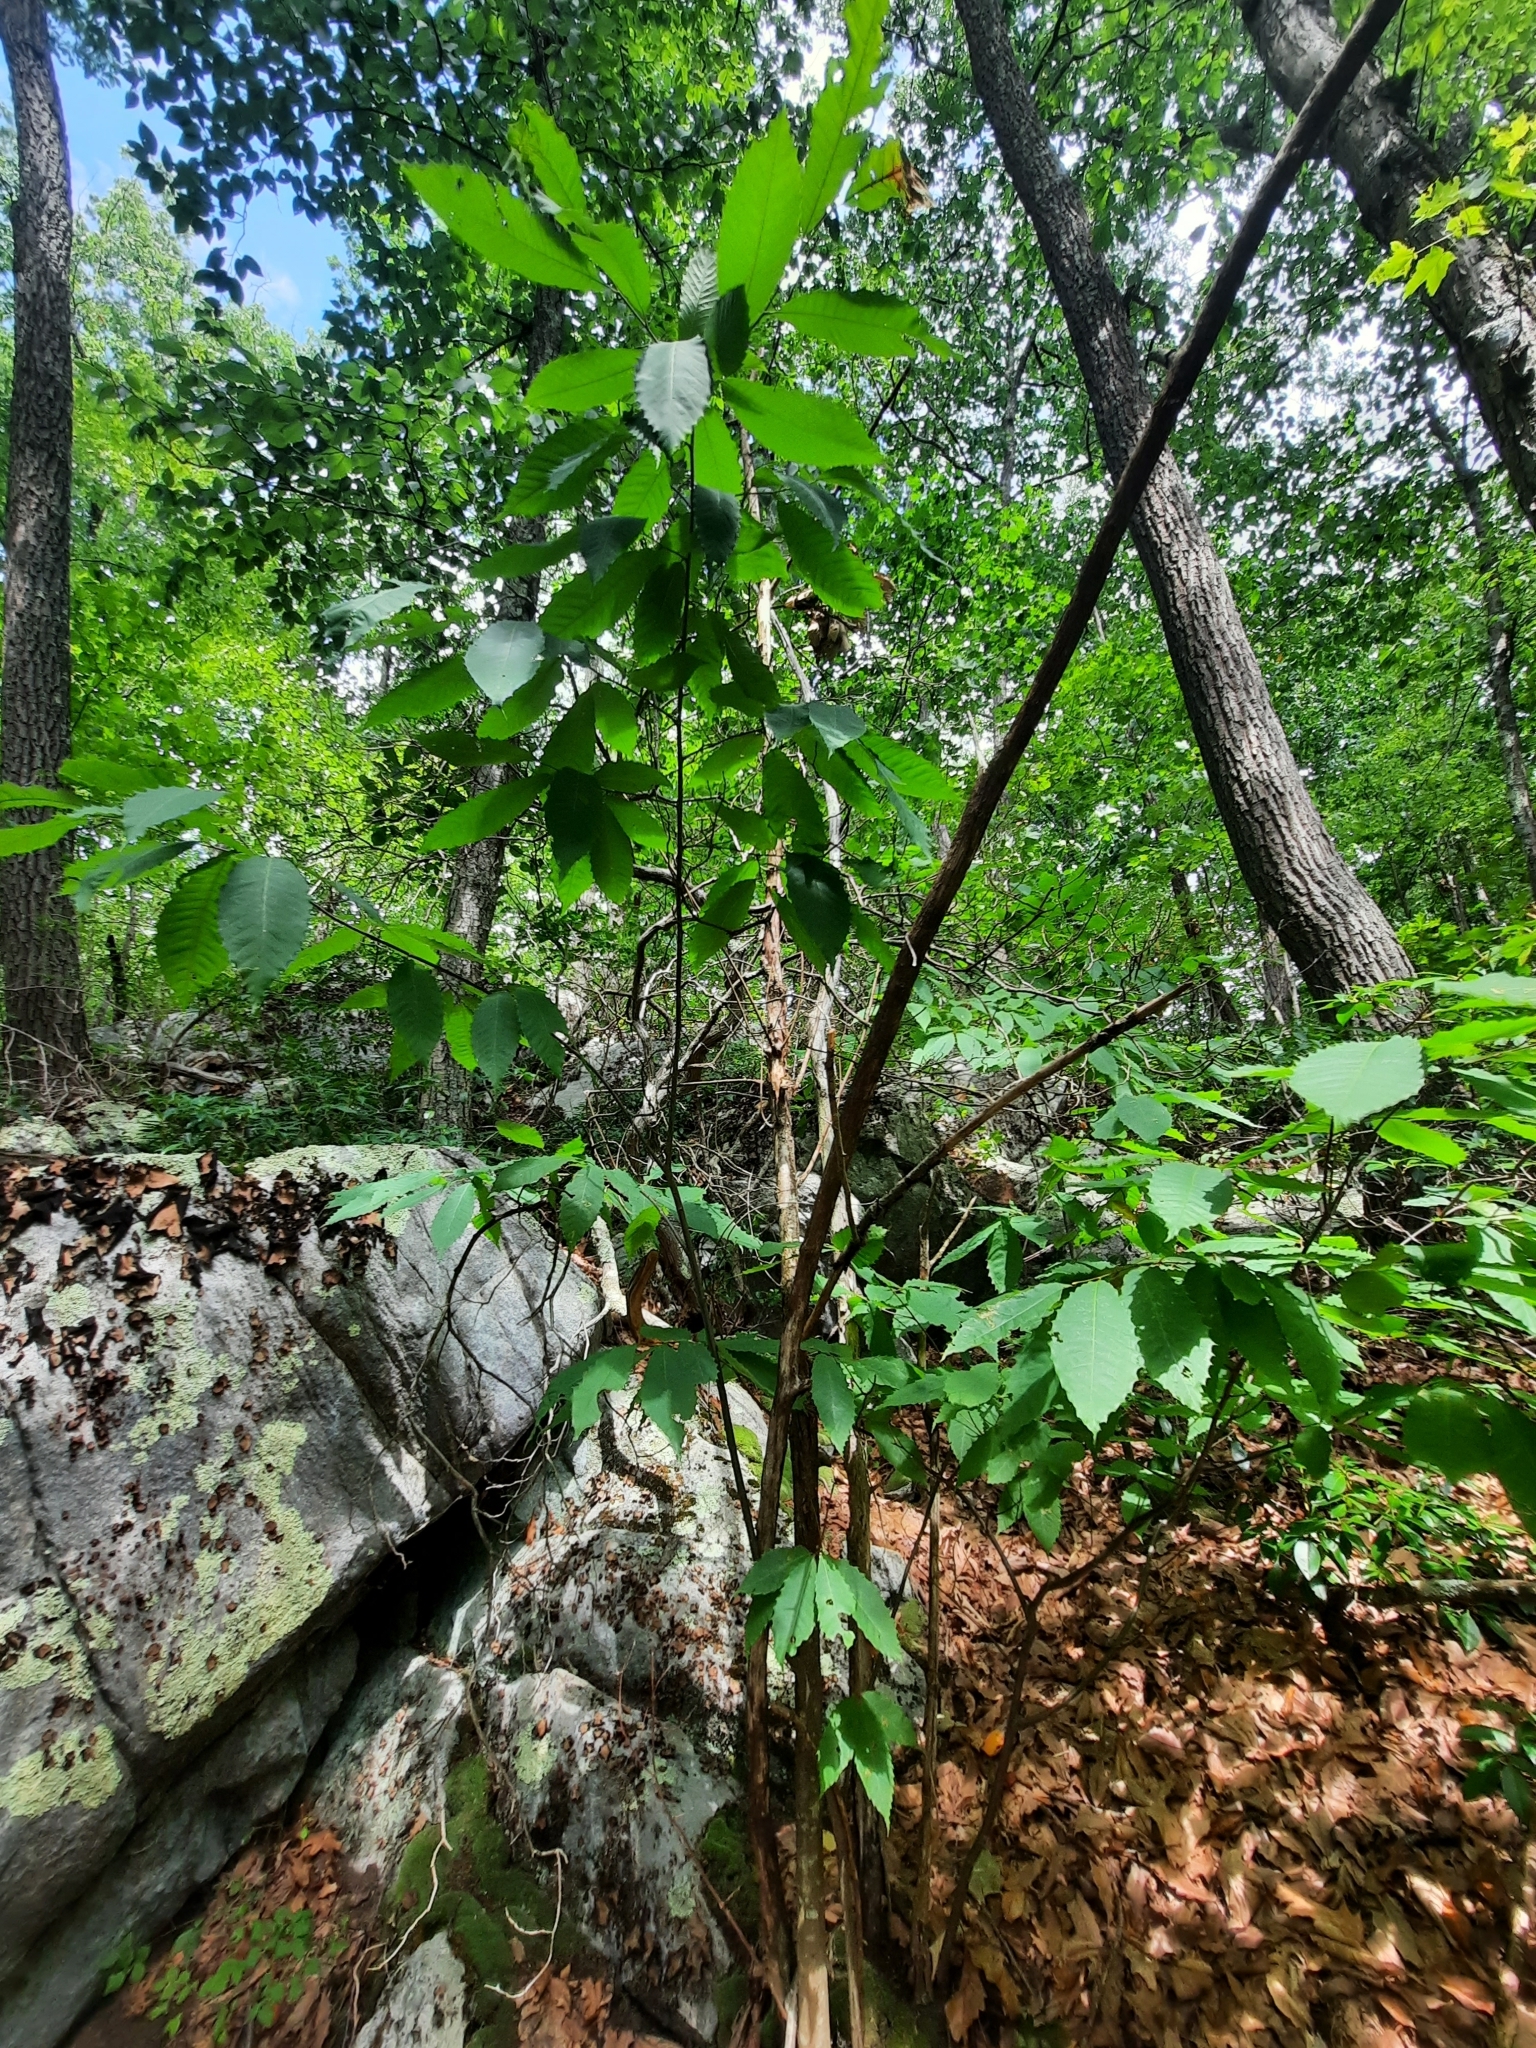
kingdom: Plantae
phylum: Tracheophyta
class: Magnoliopsida
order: Fagales
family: Fagaceae
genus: Castanea
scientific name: Castanea dentata
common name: American chestnut
